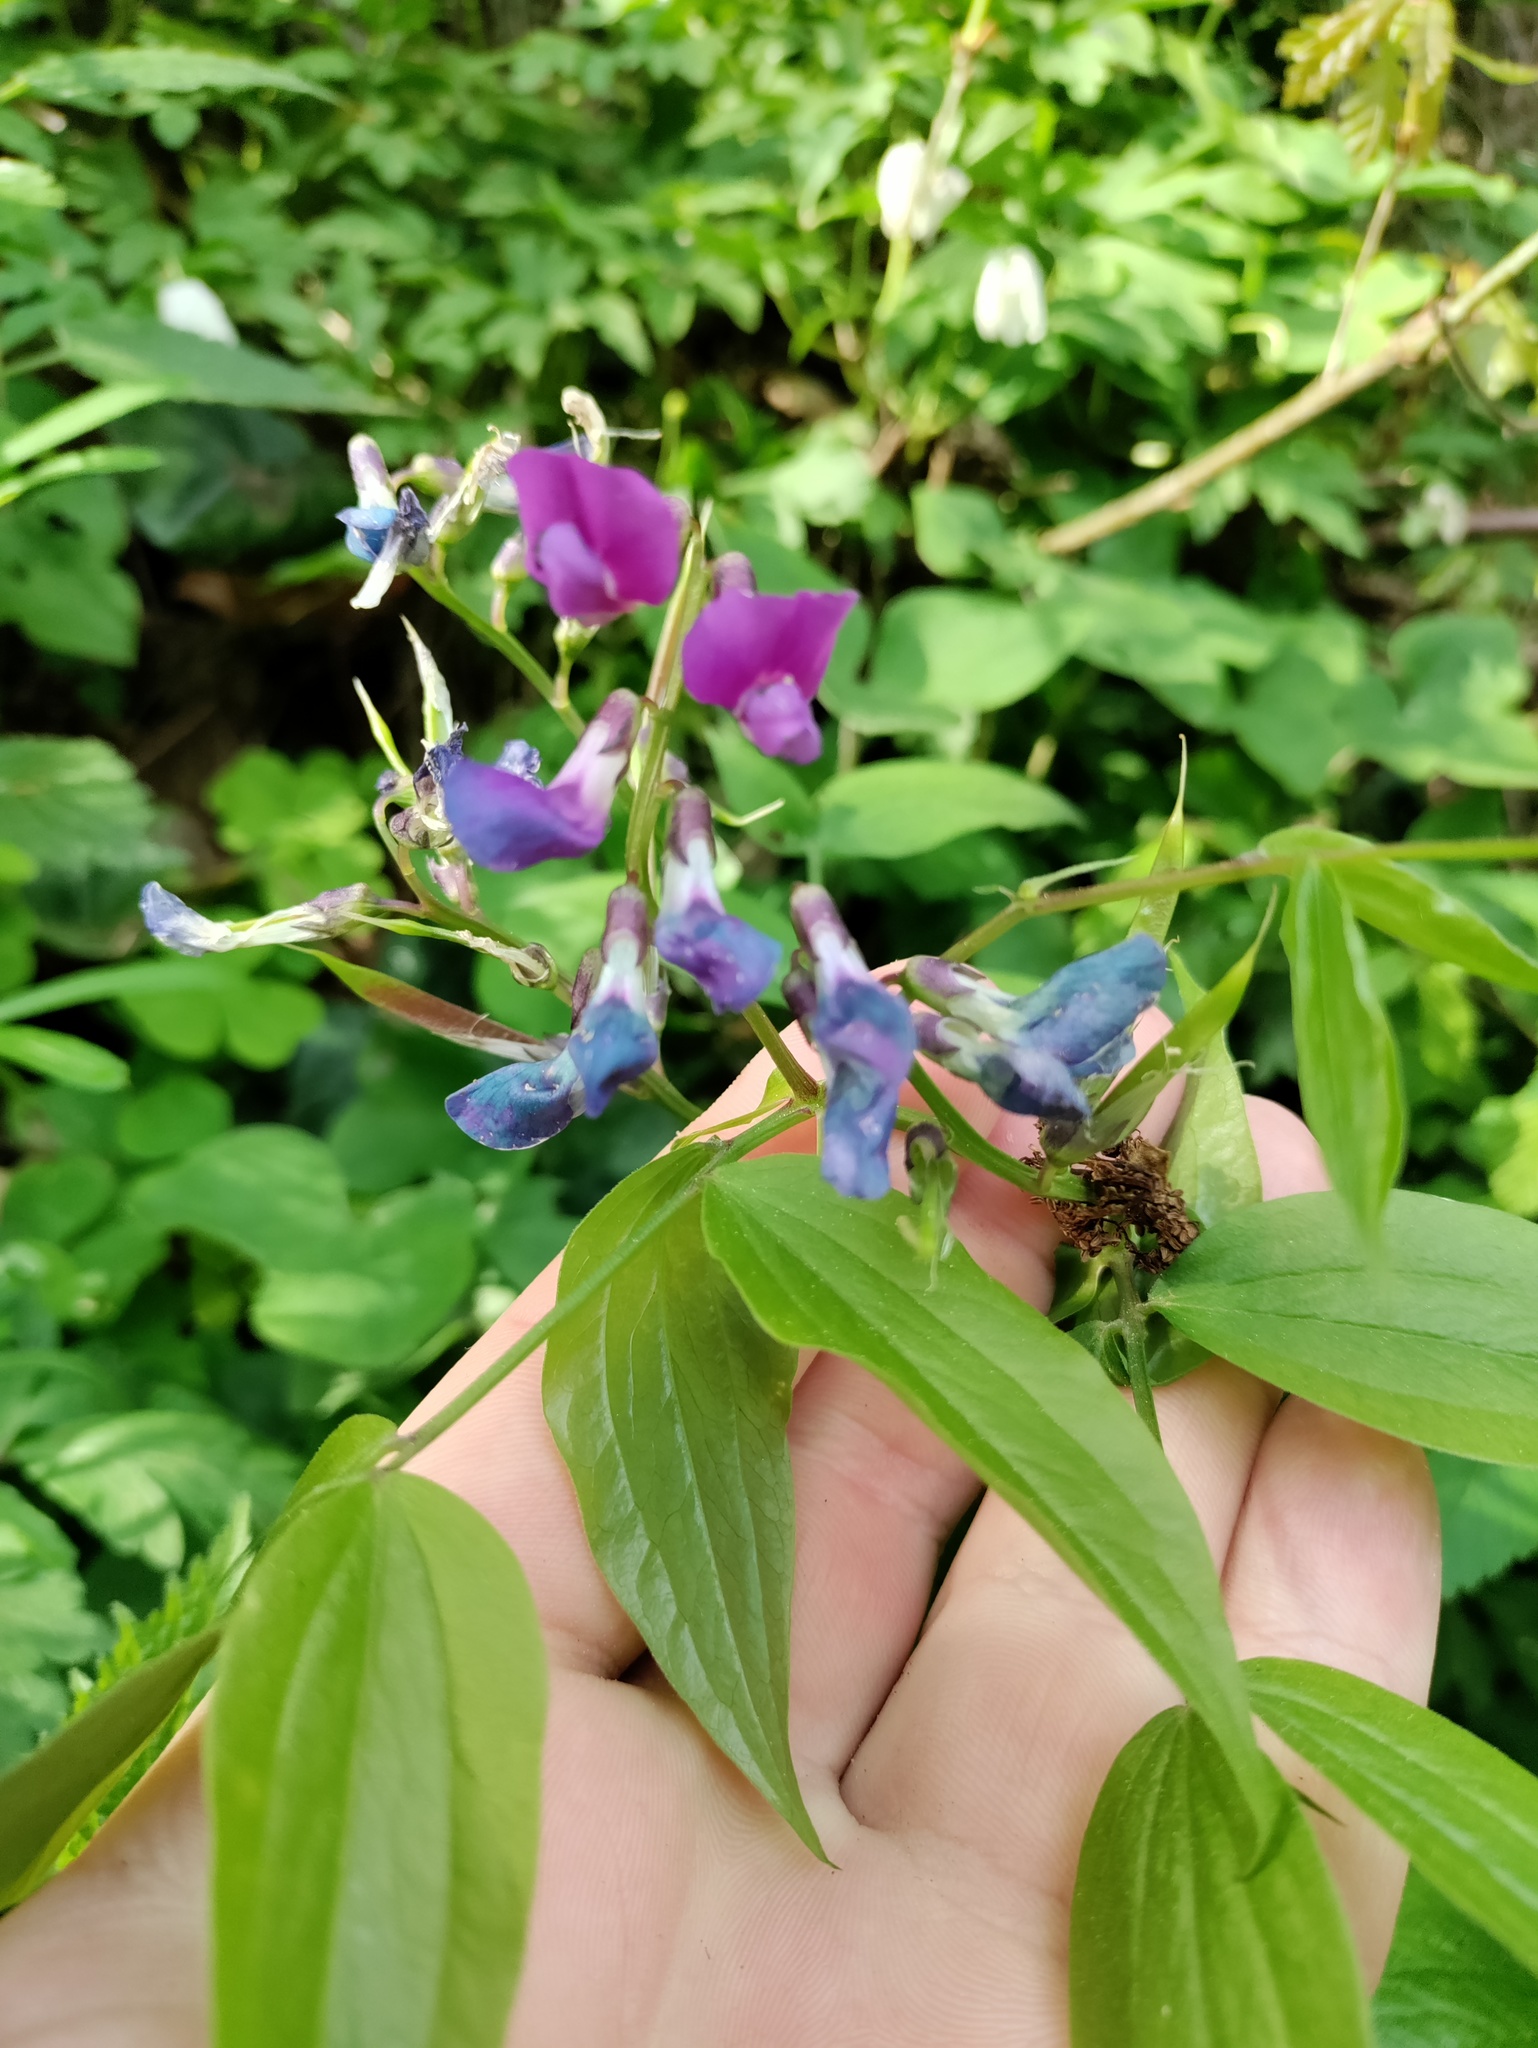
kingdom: Plantae
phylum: Tracheophyta
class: Magnoliopsida
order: Fabales
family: Fabaceae
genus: Lathyrus
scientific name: Lathyrus vernus
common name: Spring pea
